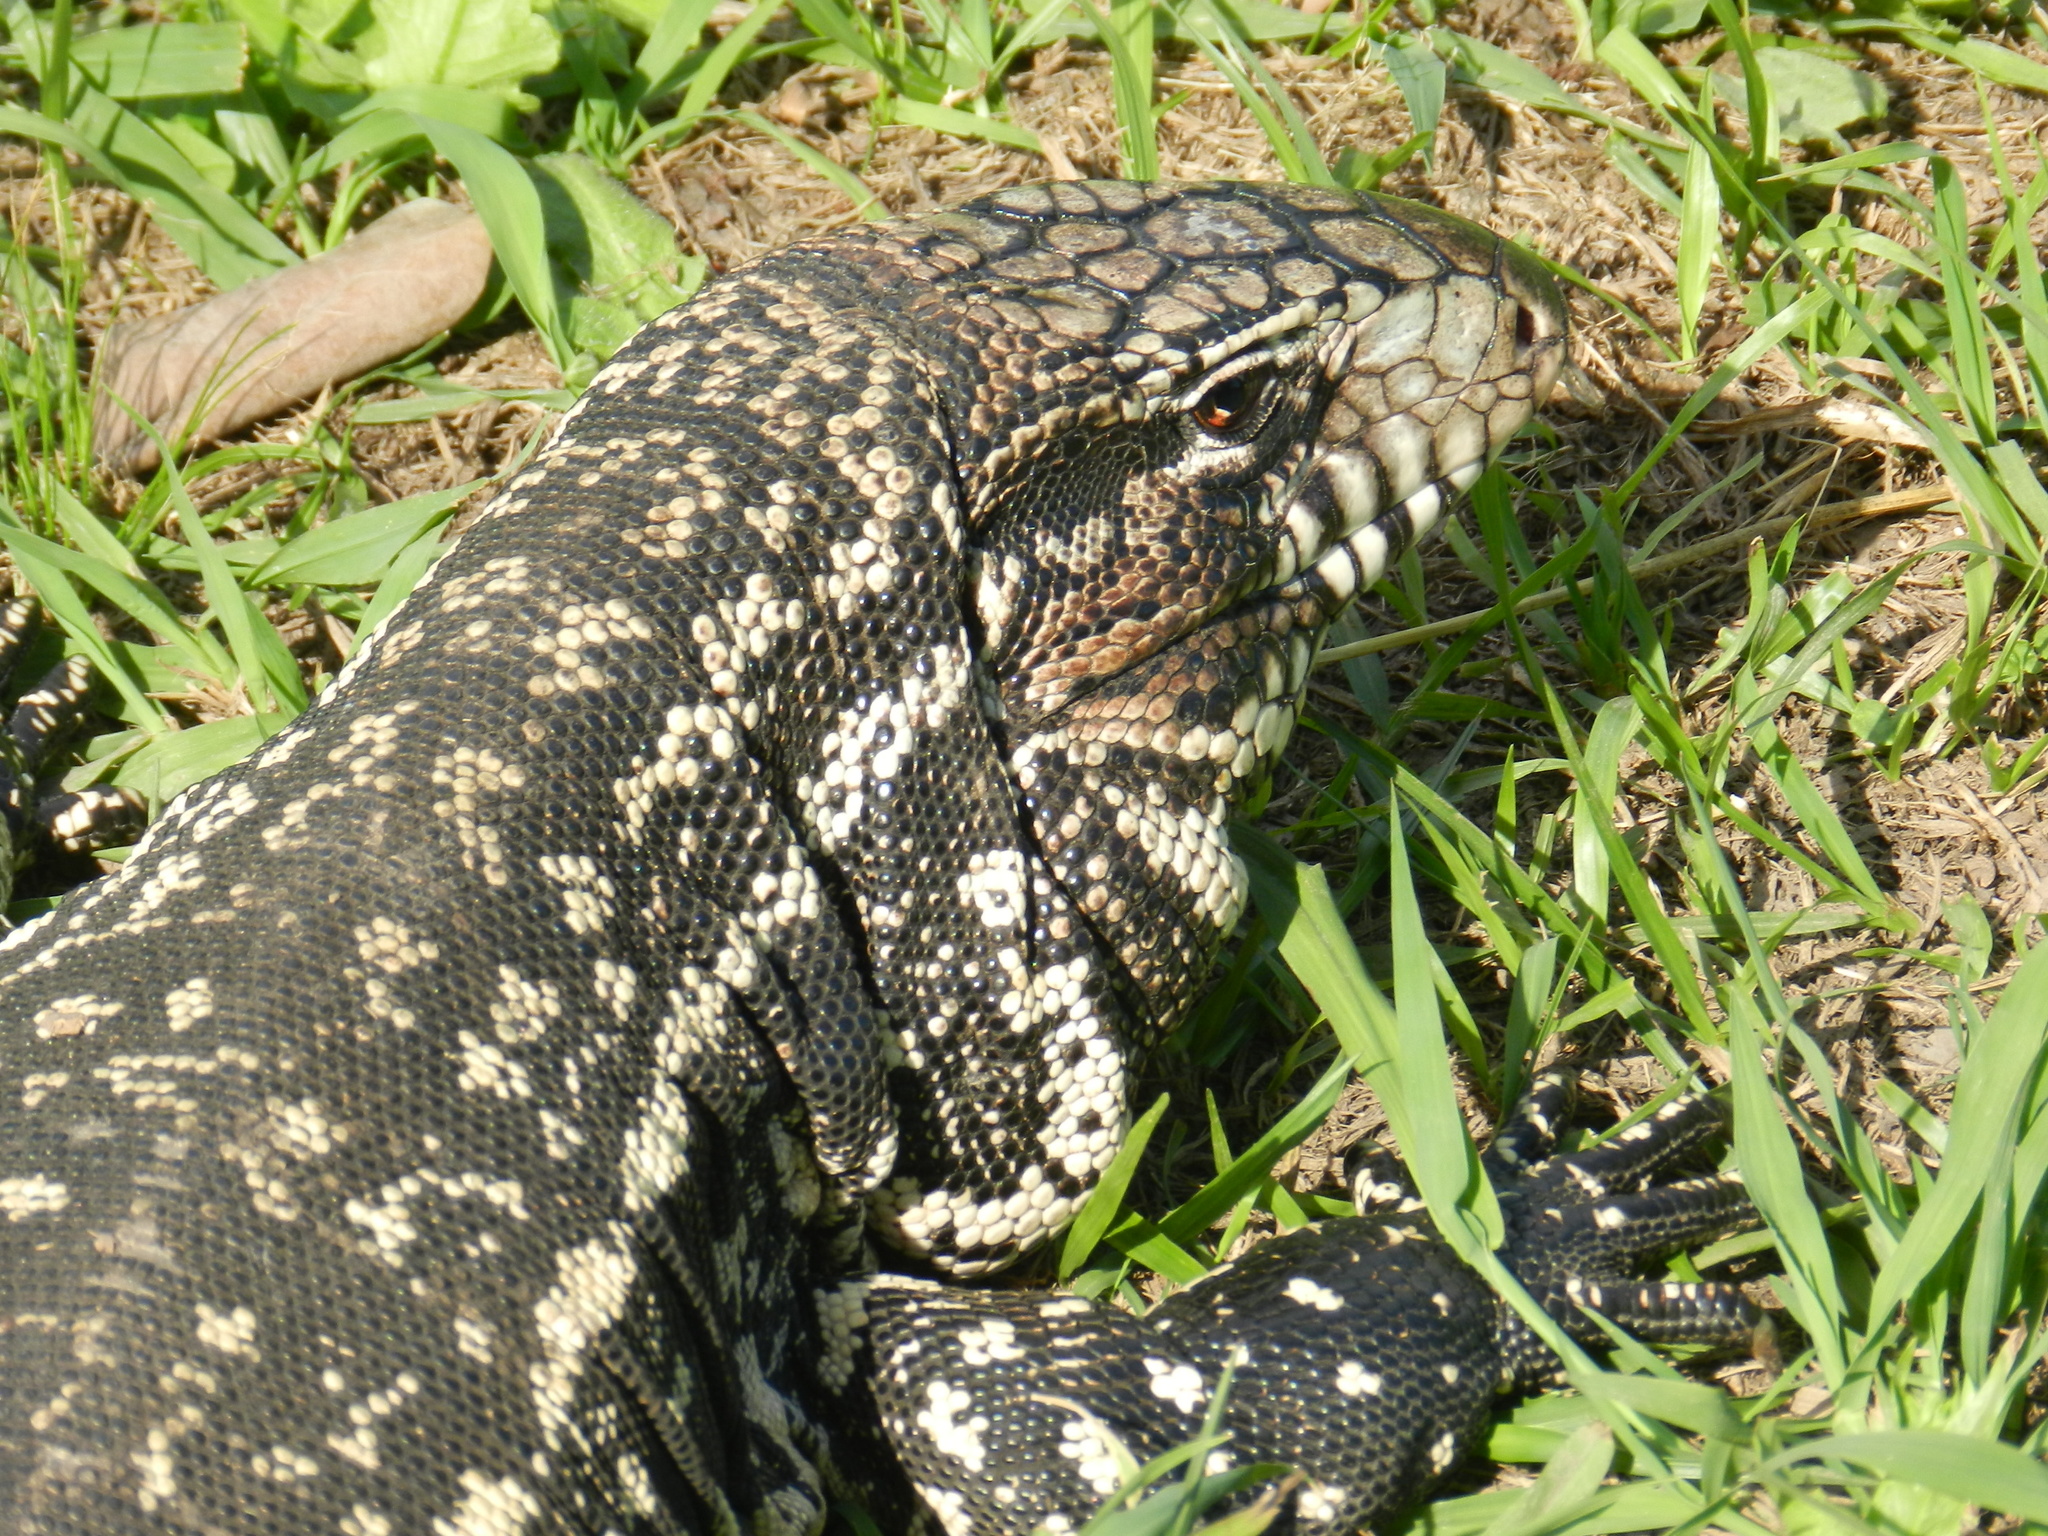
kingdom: Animalia
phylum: Chordata
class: Squamata
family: Teiidae
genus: Salvator
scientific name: Salvator merianae
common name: Argentine black and white tegu
